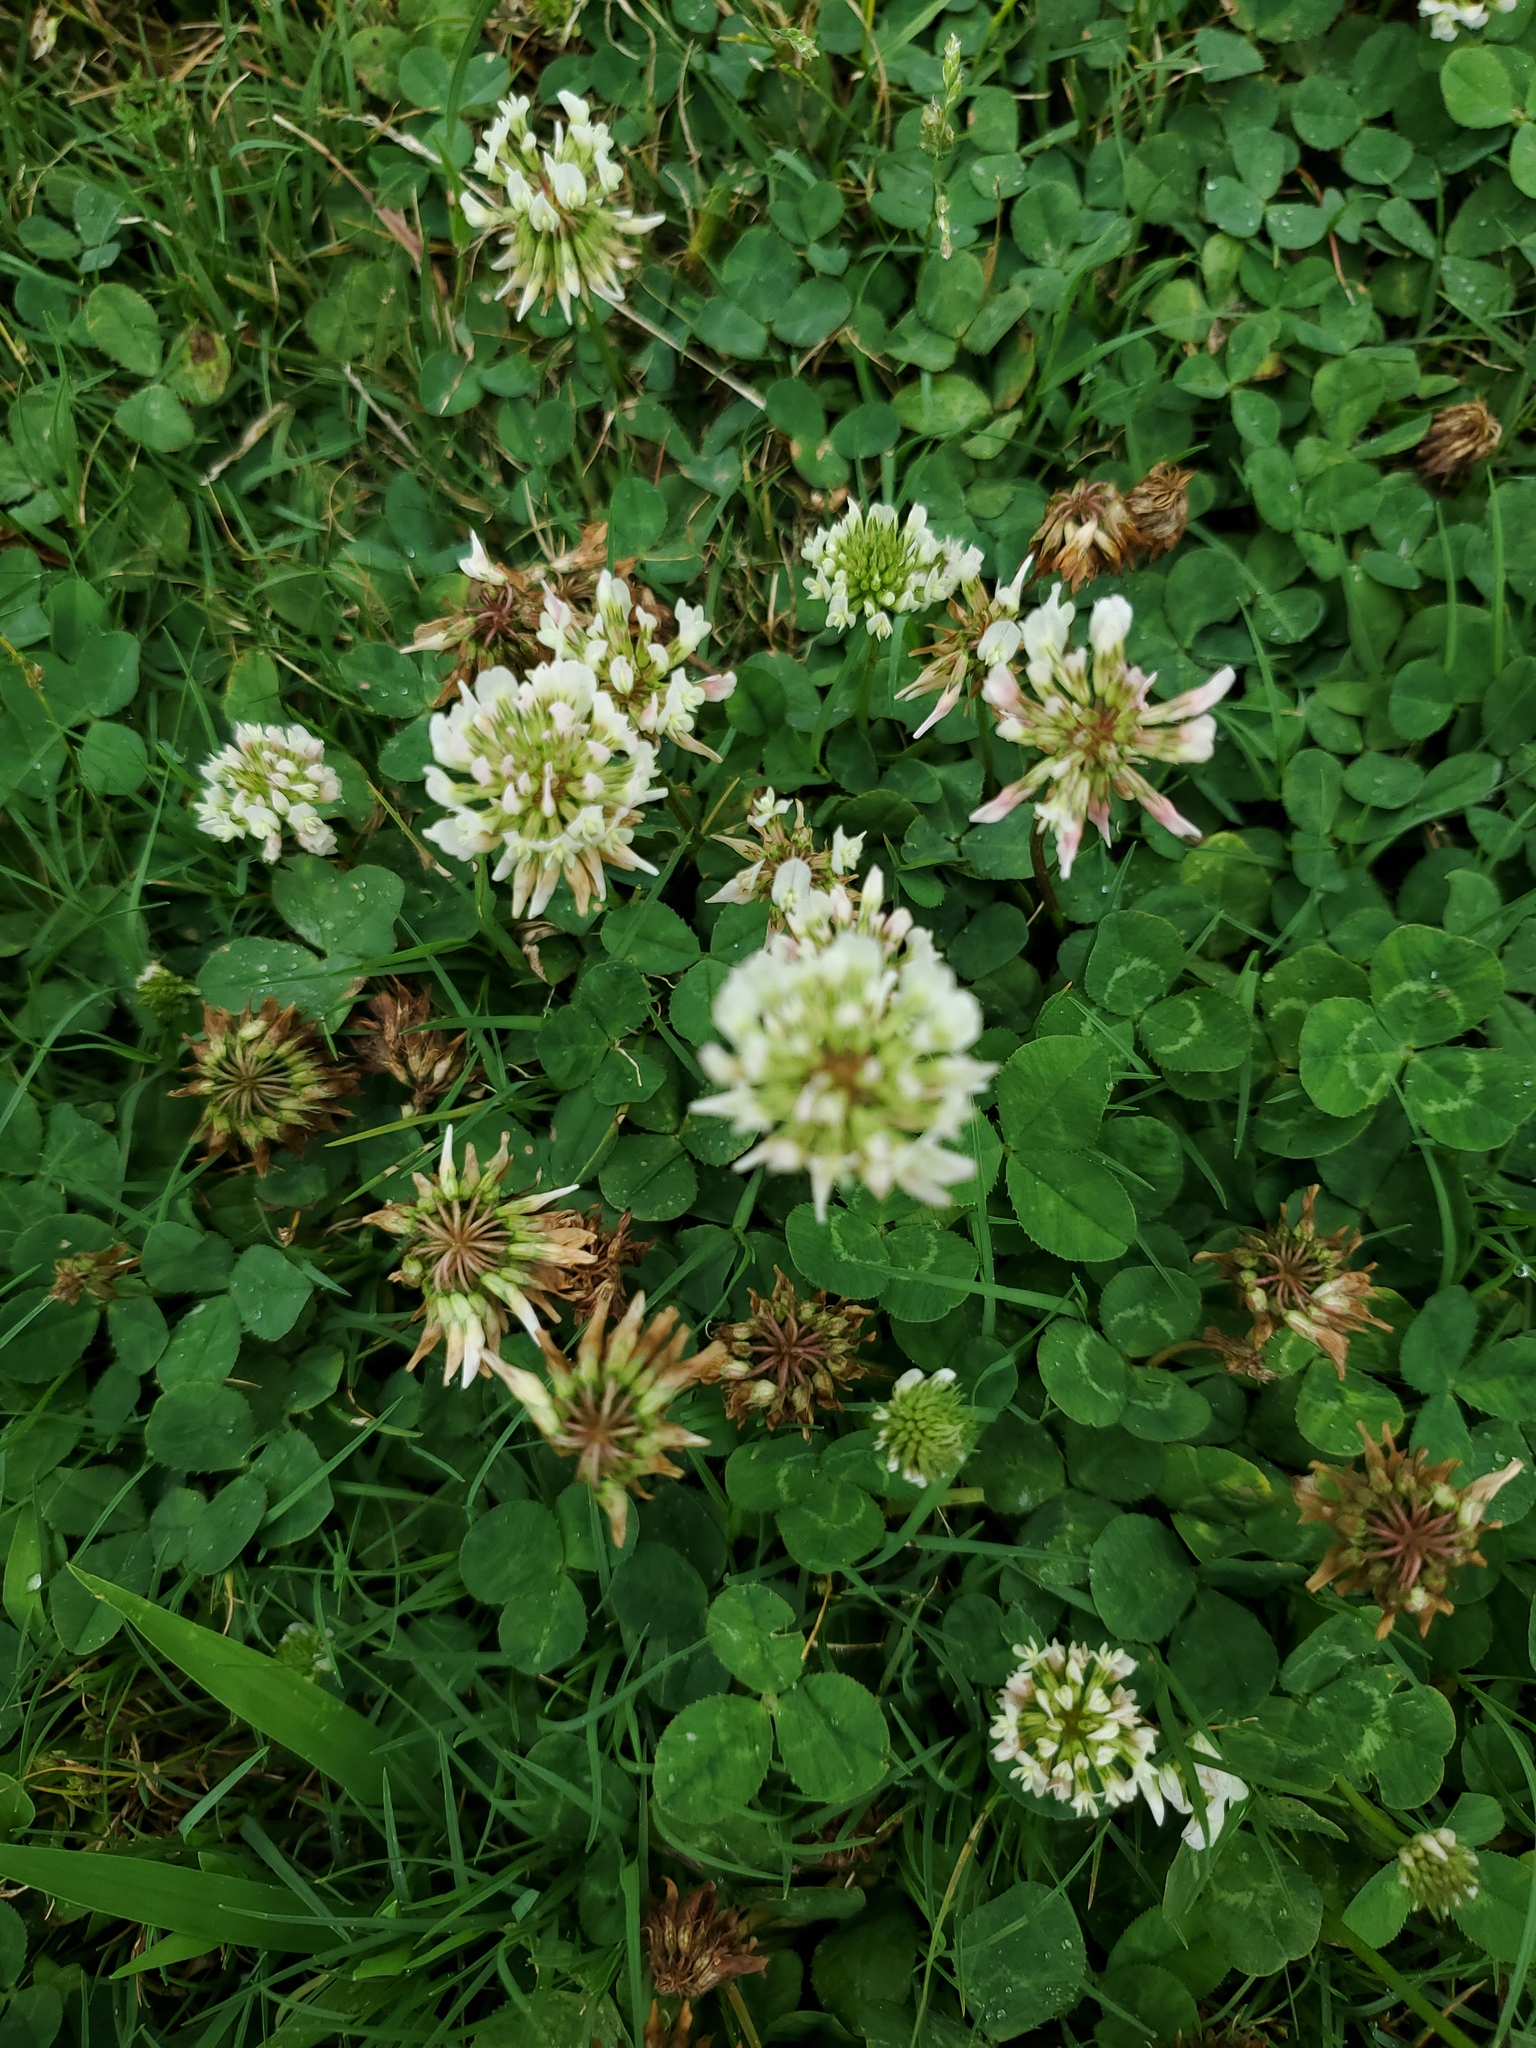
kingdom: Plantae
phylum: Tracheophyta
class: Magnoliopsida
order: Fabales
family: Fabaceae
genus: Trifolium
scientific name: Trifolium repens
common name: White clover
